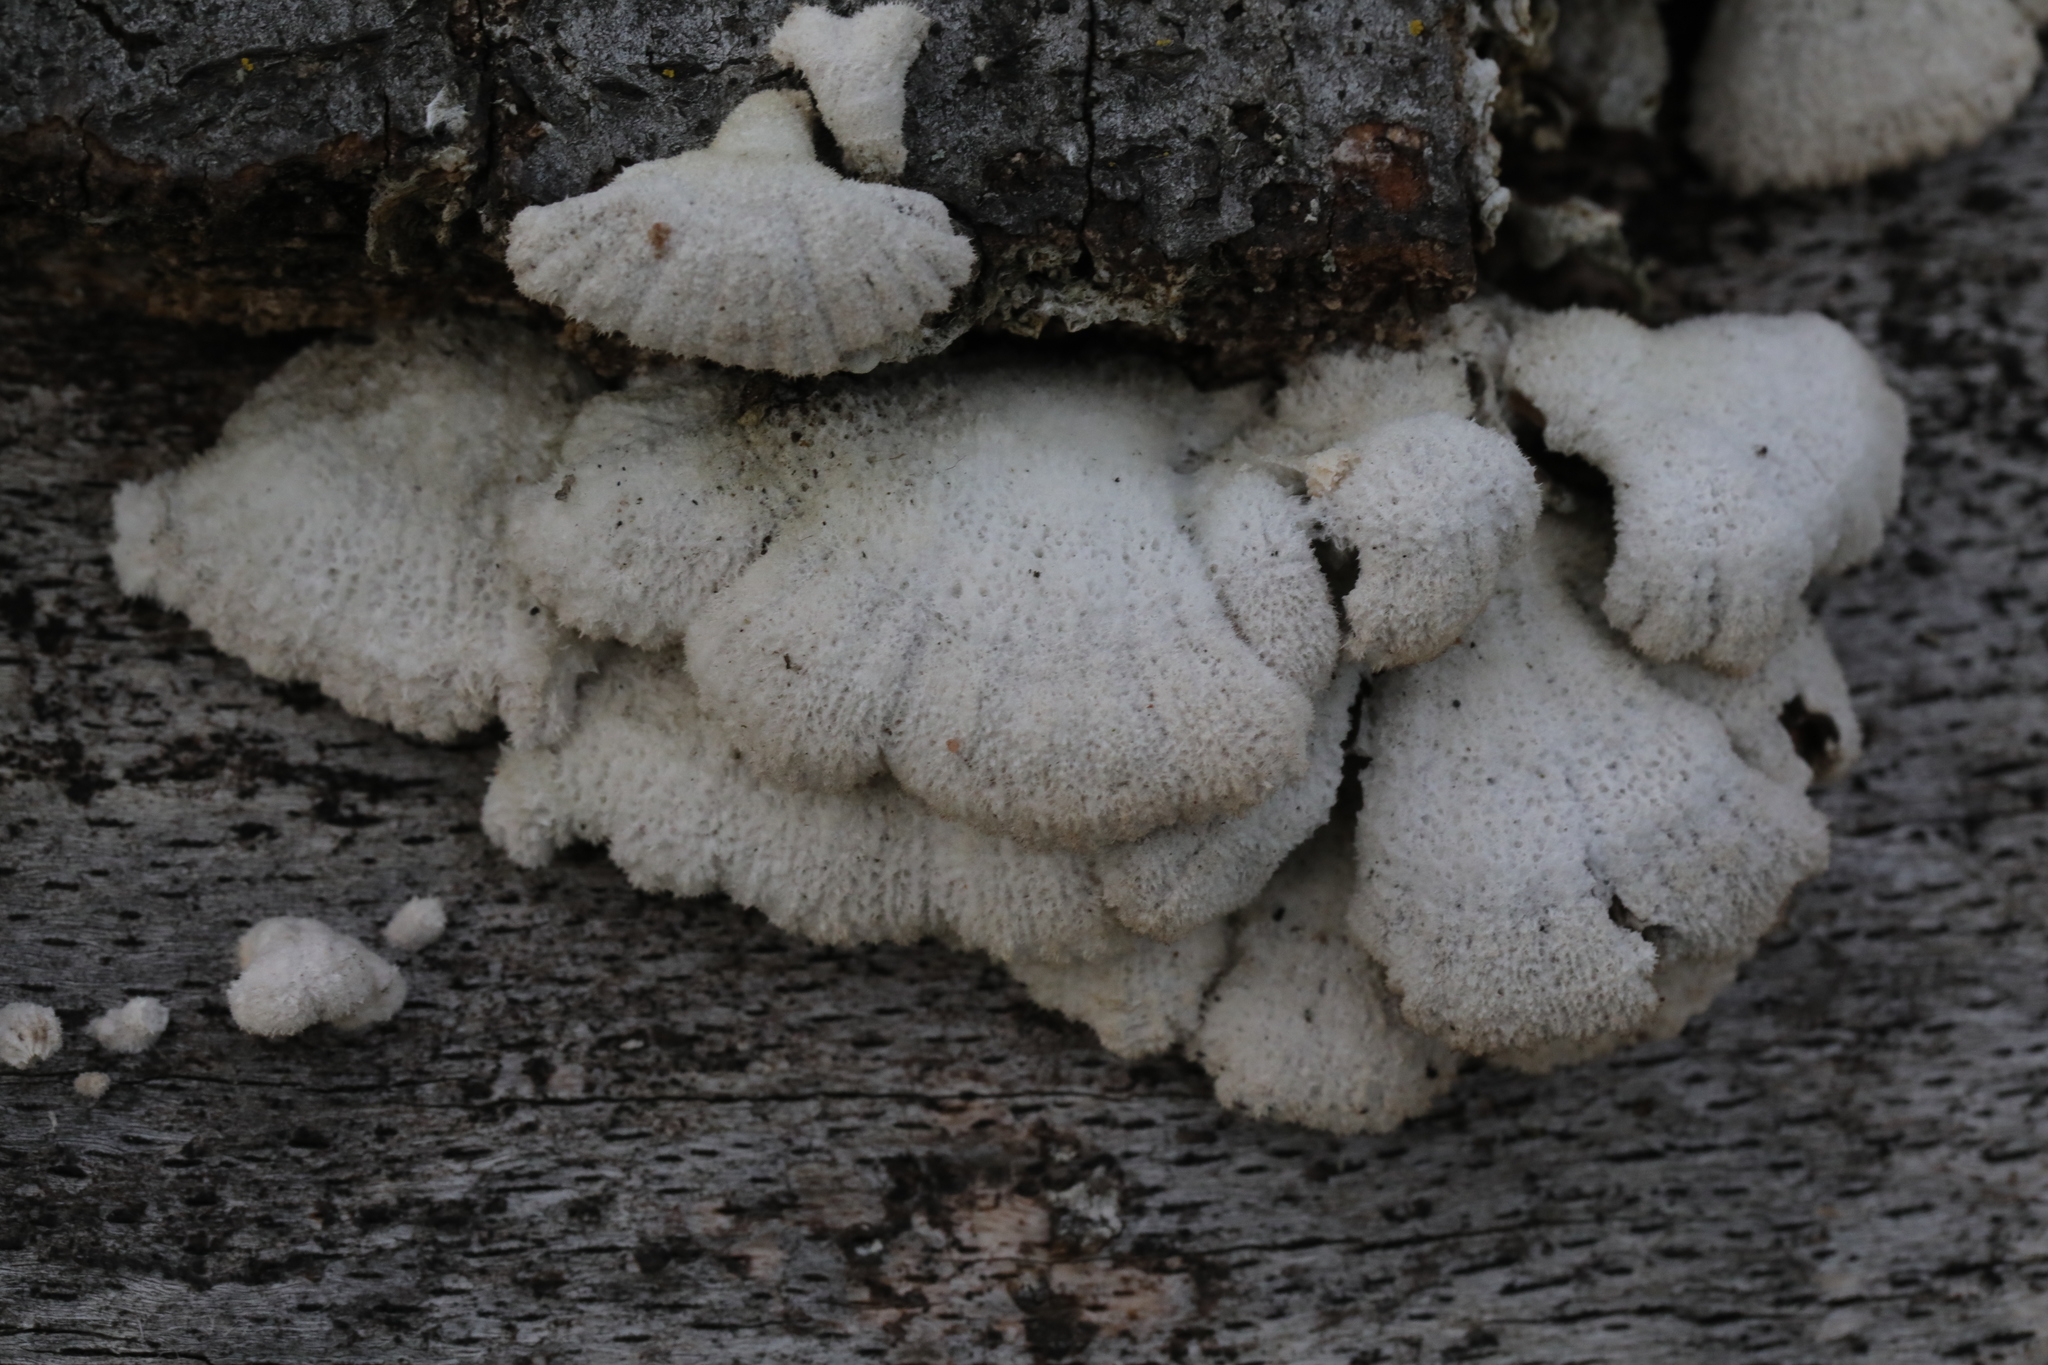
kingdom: Fungi
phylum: Basidiomycota
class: Agaricomycetes
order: Agaricales
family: Schizophyllaceae
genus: Schizophyllum
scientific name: Schizophyllum commune
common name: Common porecrust
